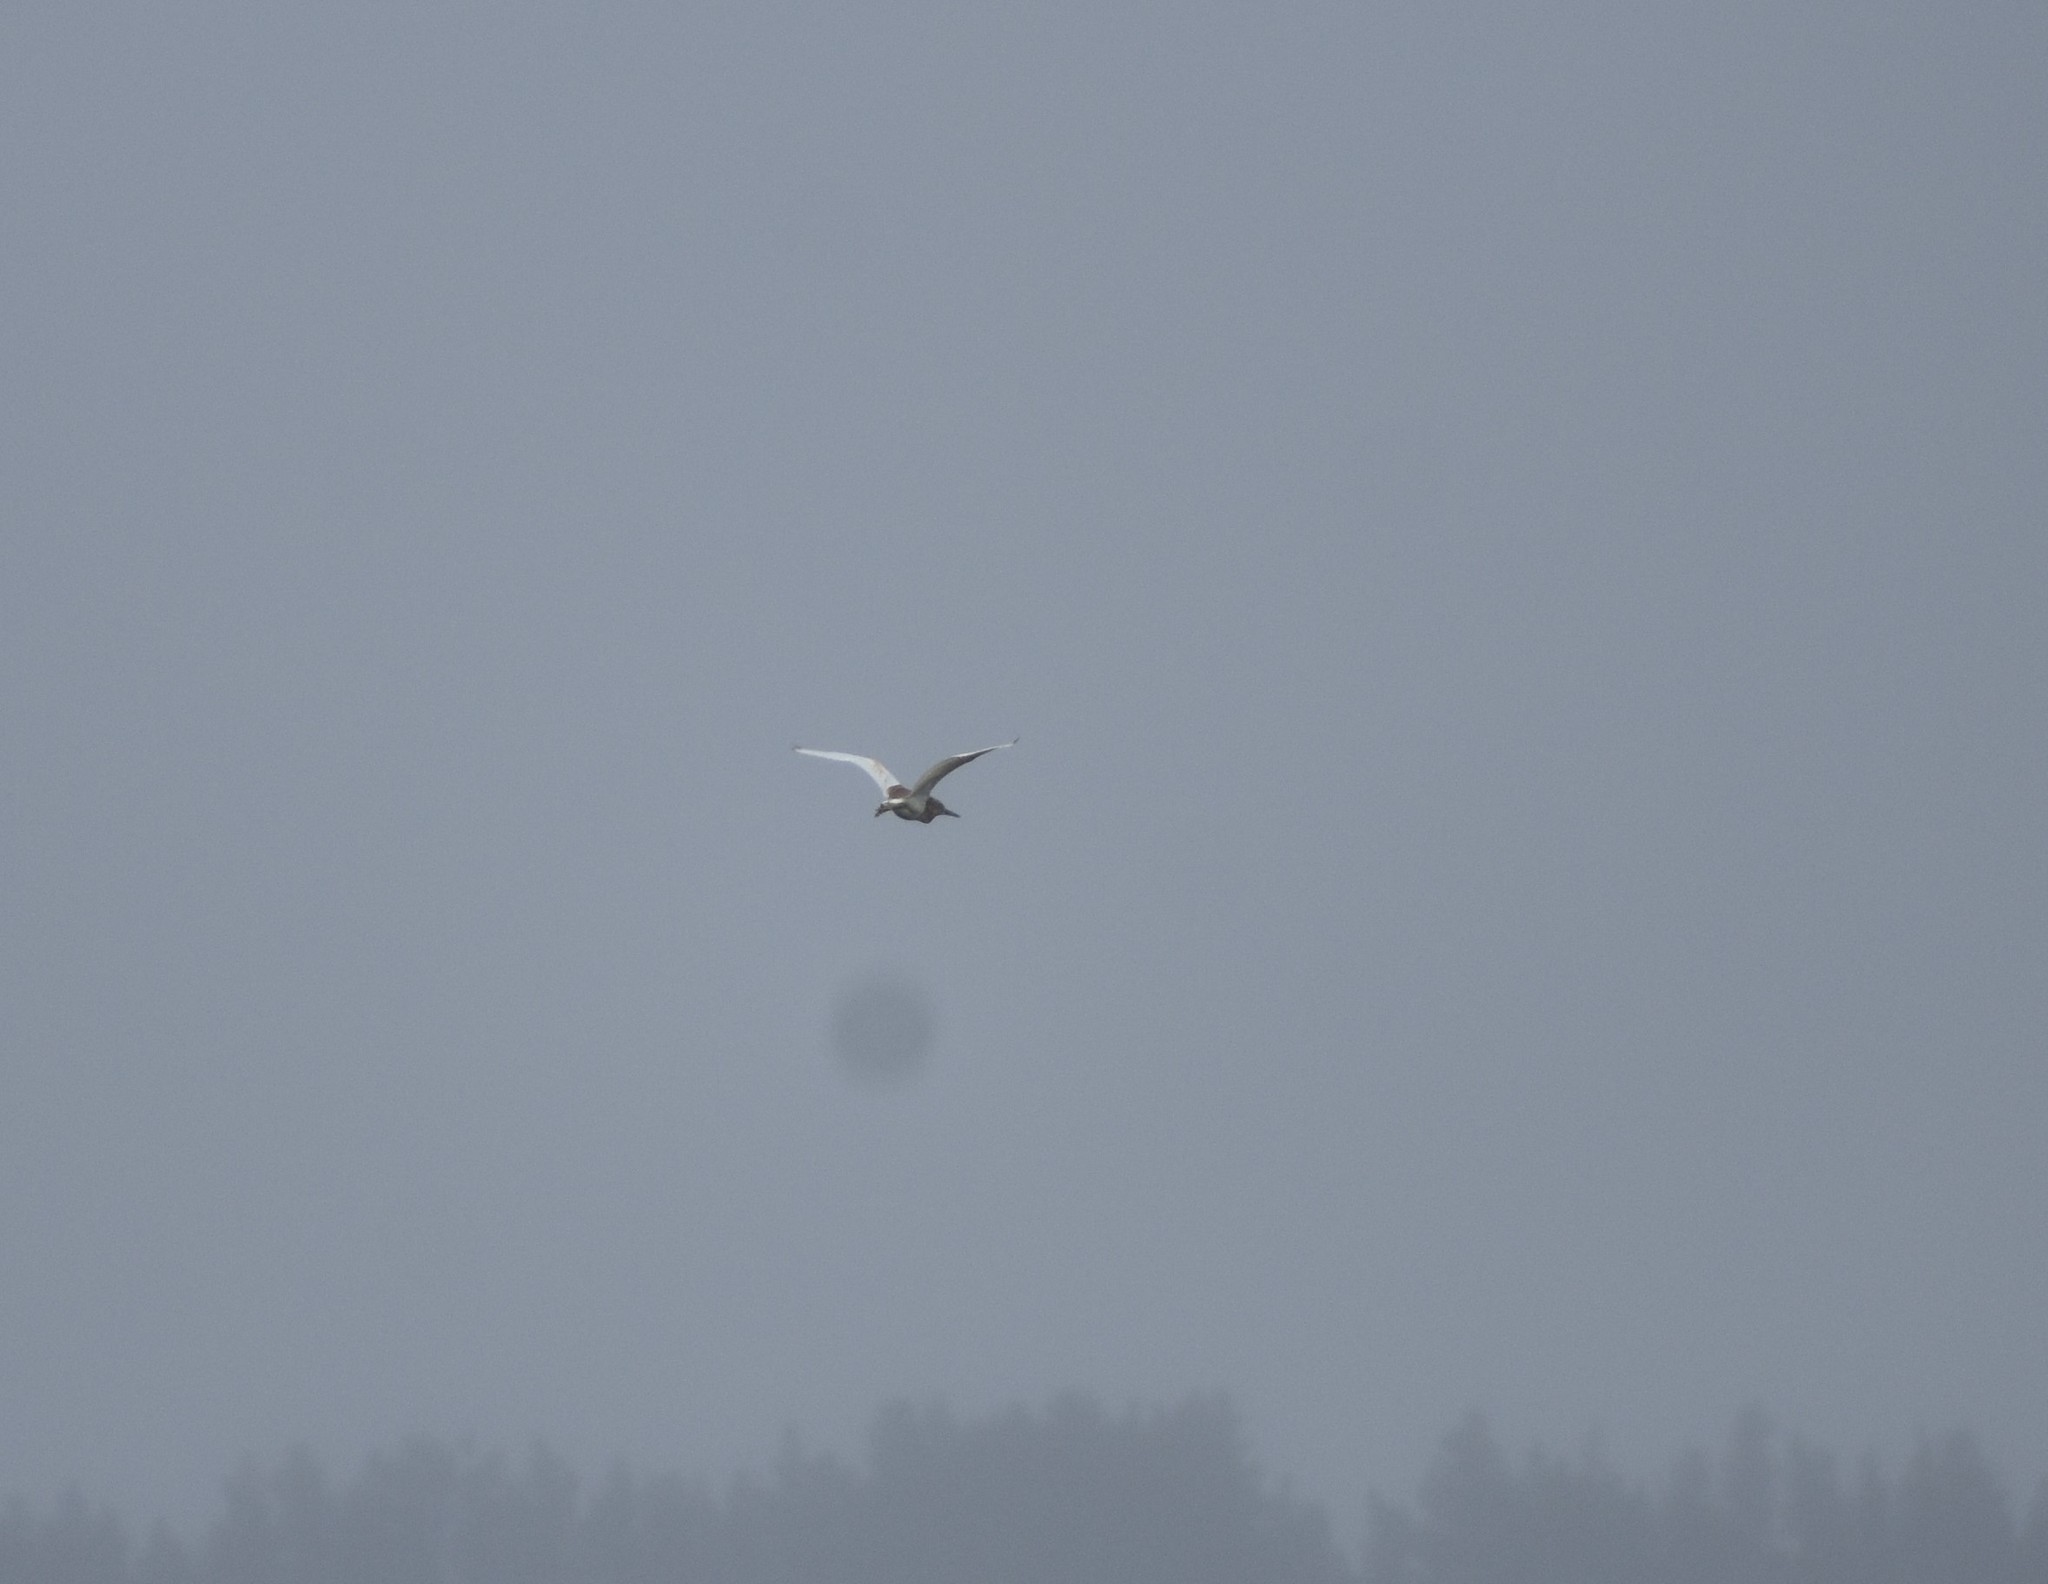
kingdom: Animalia
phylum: Chordata
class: Aves
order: Pelecaniformes
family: Ardeidae
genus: Ardeola
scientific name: Ardeola ralloides
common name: Squacco heron
